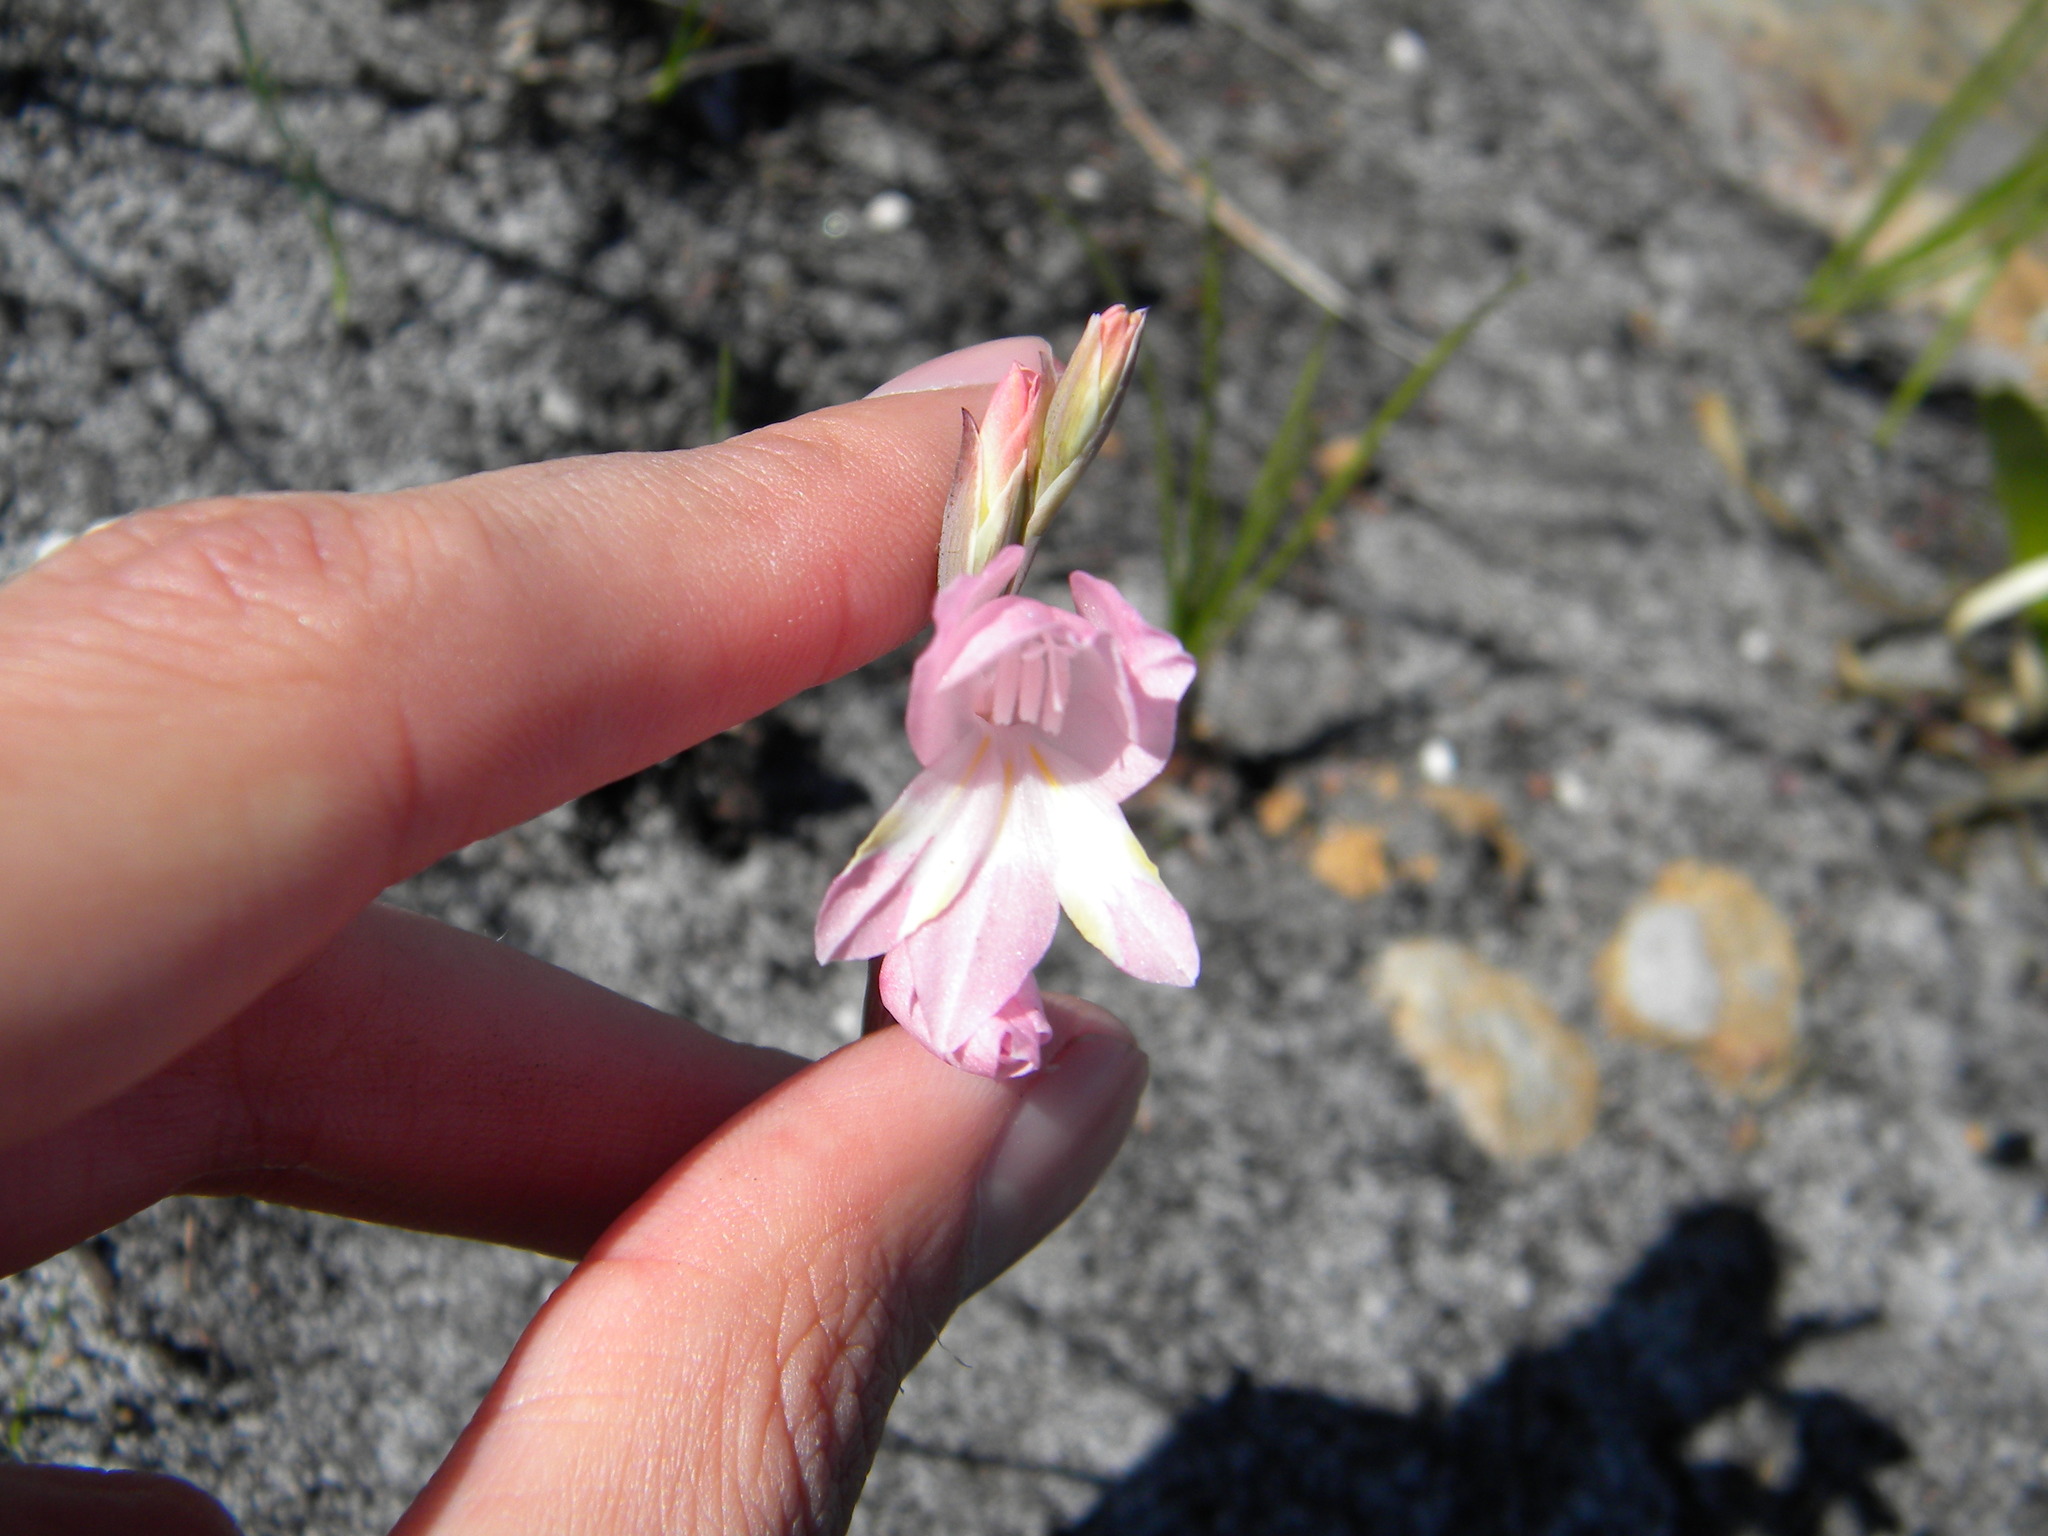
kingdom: Plantae
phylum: Tracheophyta
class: Liliopsida
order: Asparagales
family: Iridaceae
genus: Gladiolus
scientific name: Gladiolus brevifolius
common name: March pypie
